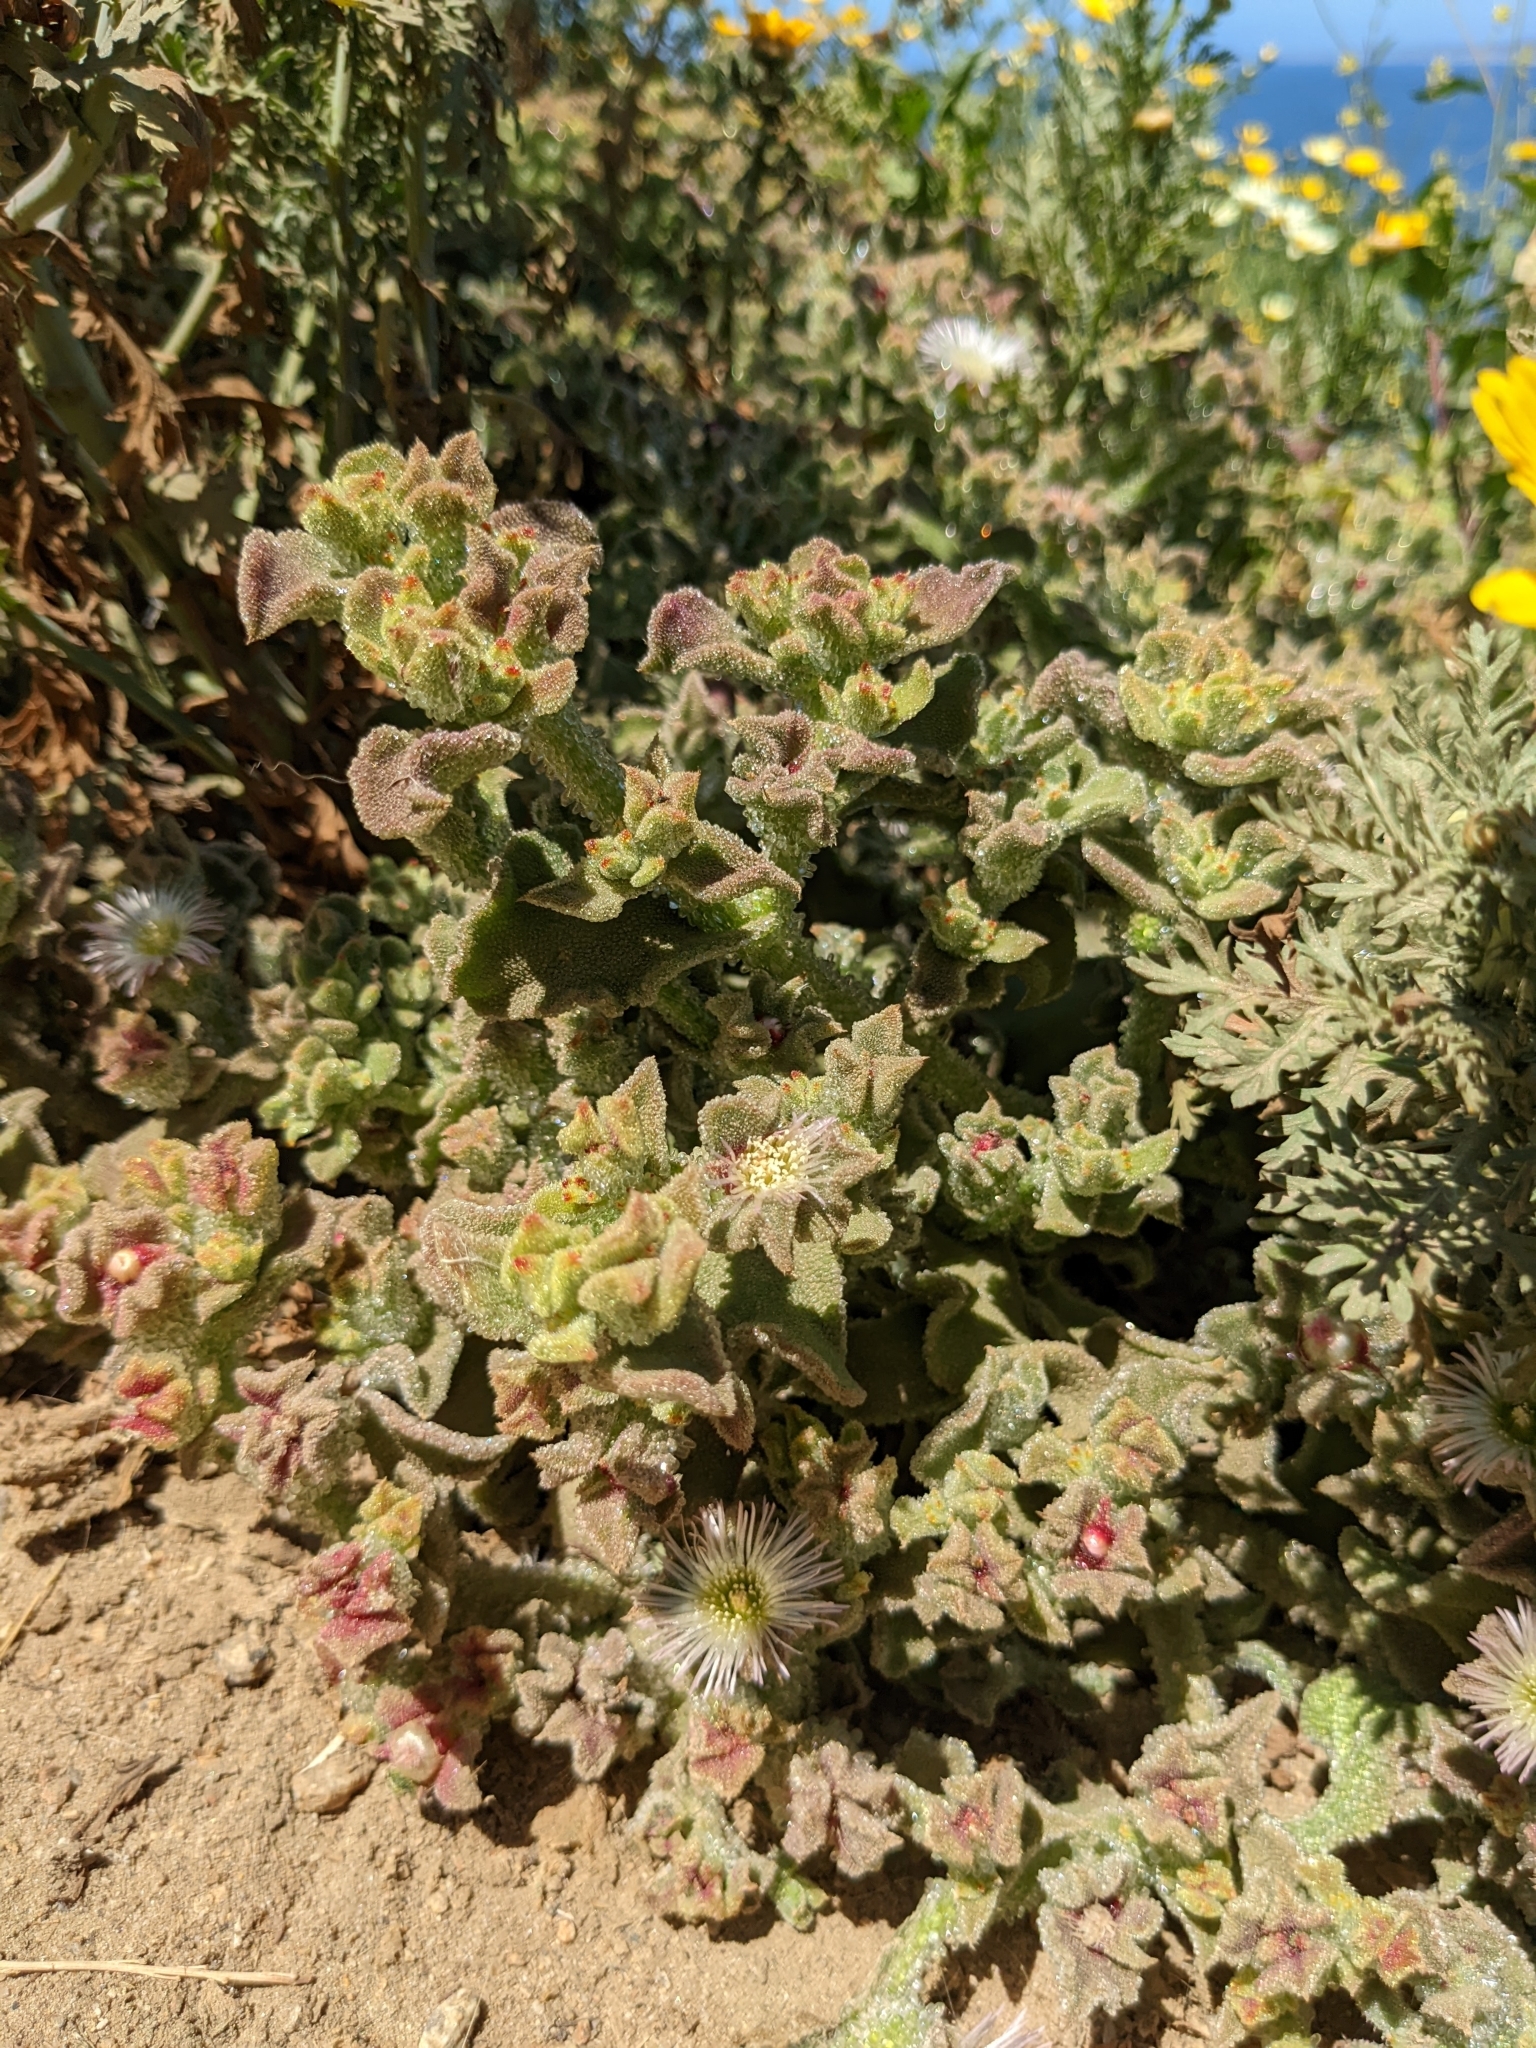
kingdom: Plantae
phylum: Tracheophyta
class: Magnoliopsida
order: Caryophyllales
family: Aizoaceae
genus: Mesembryanthemum
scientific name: Mesembryanthemum crystallinum
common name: Common iceplant
